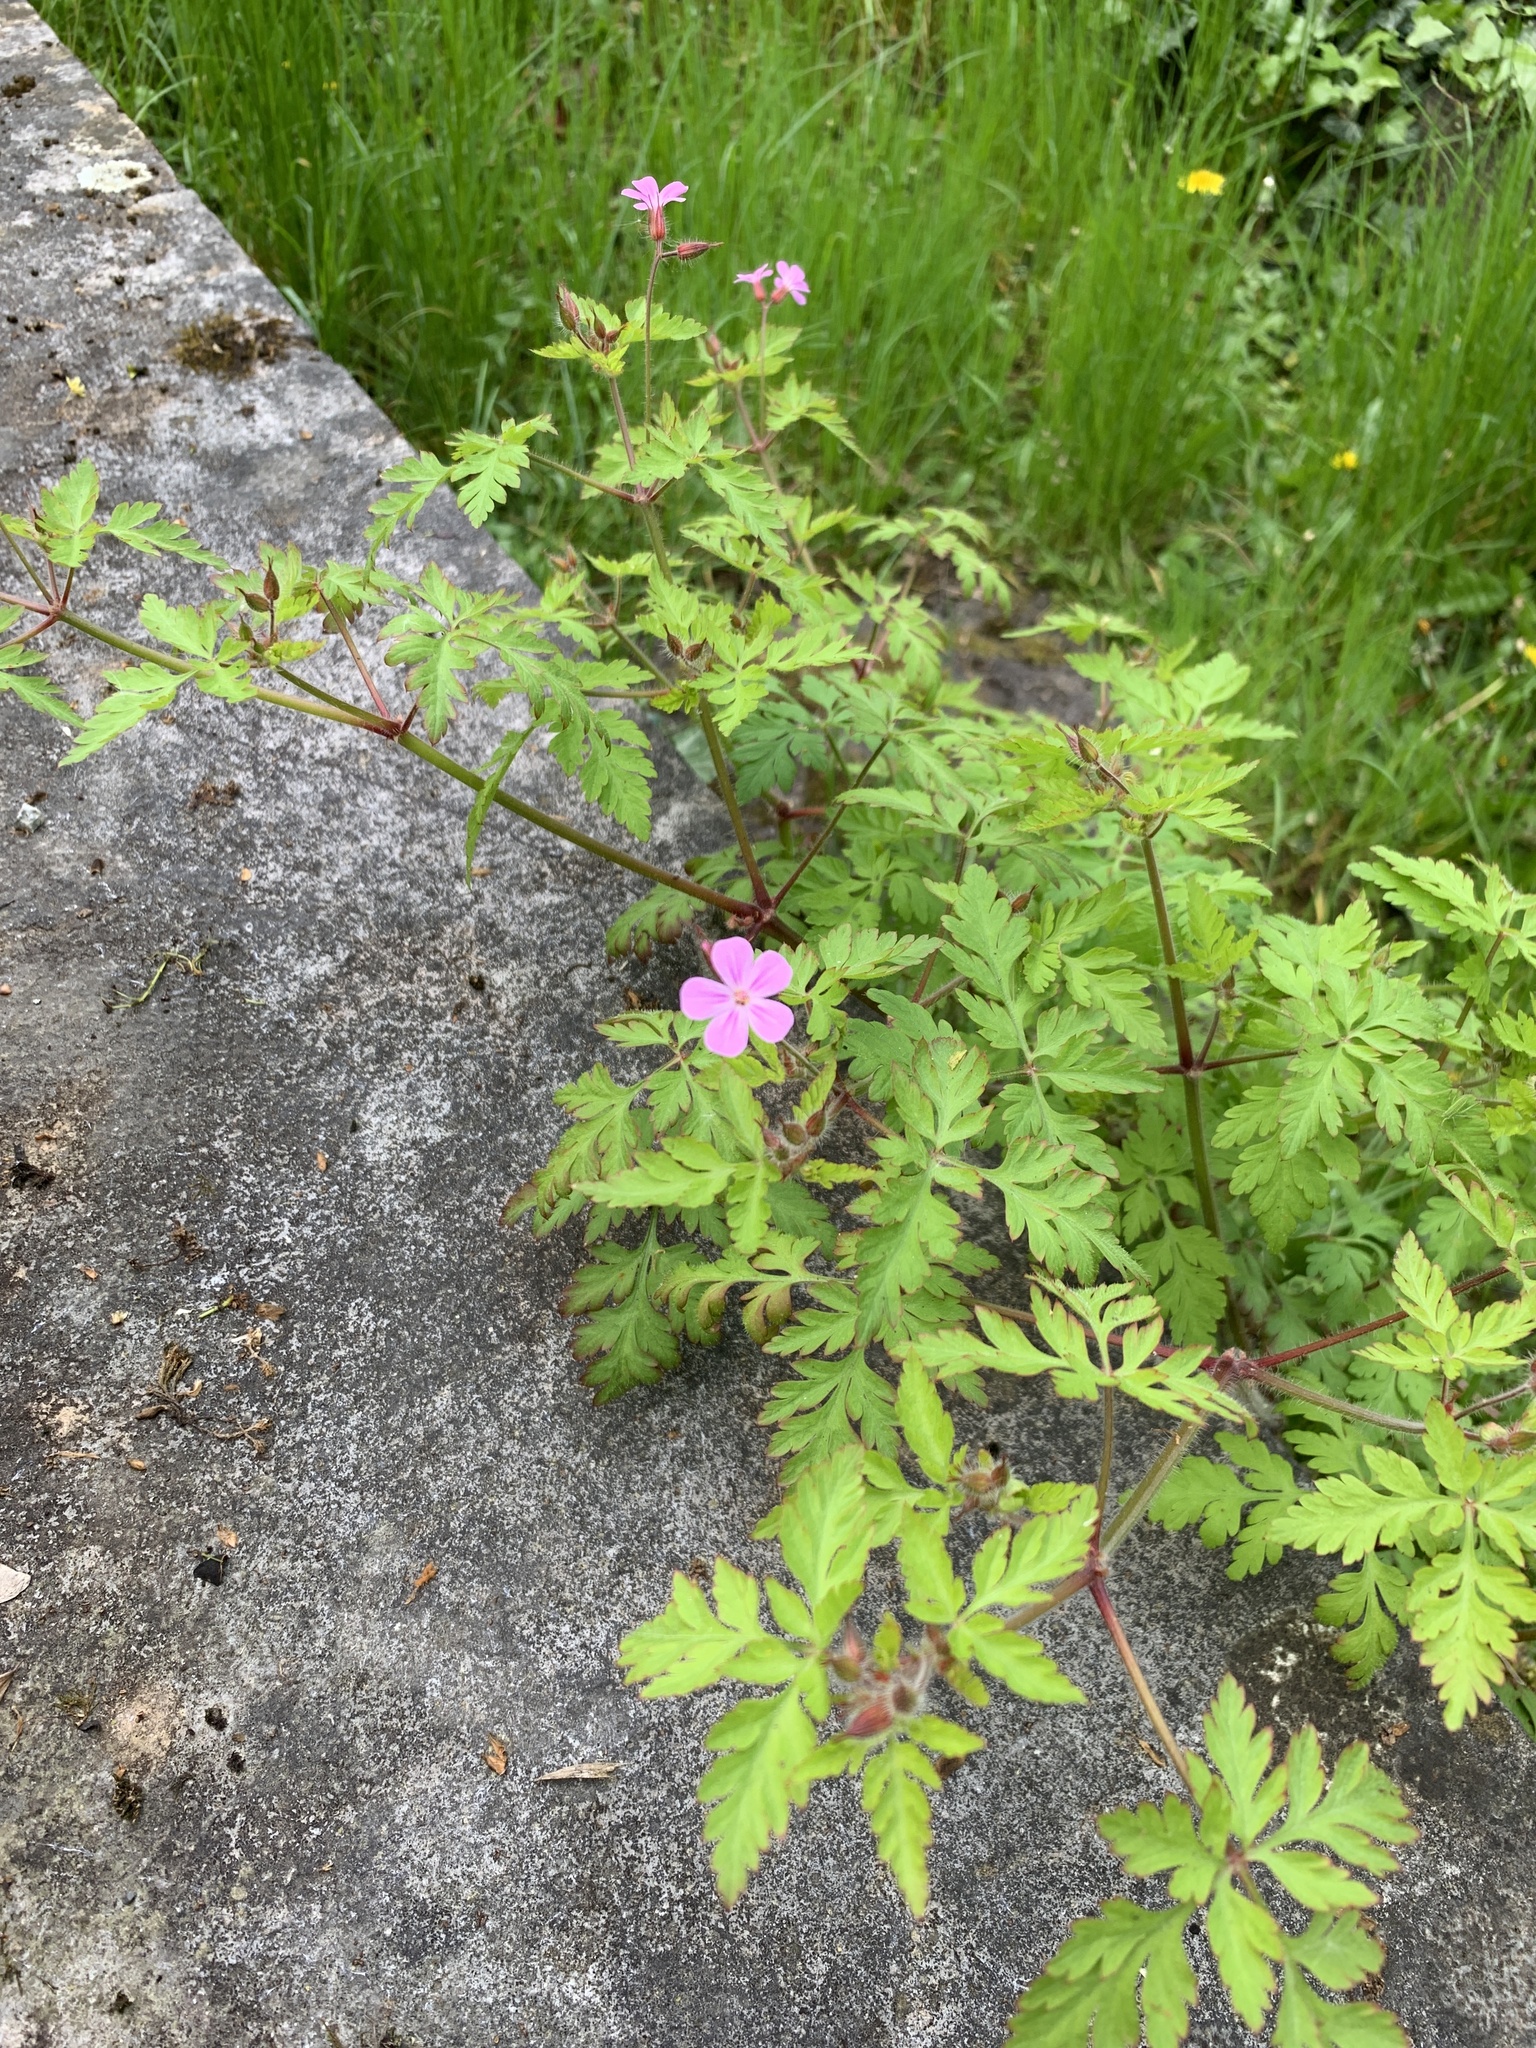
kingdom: Plantae
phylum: Tracheophyta
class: Magnoliopsida
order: Geraniales
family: Geraniaceae
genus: Geranium
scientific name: Geranium robertianum
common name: Herb-robert
